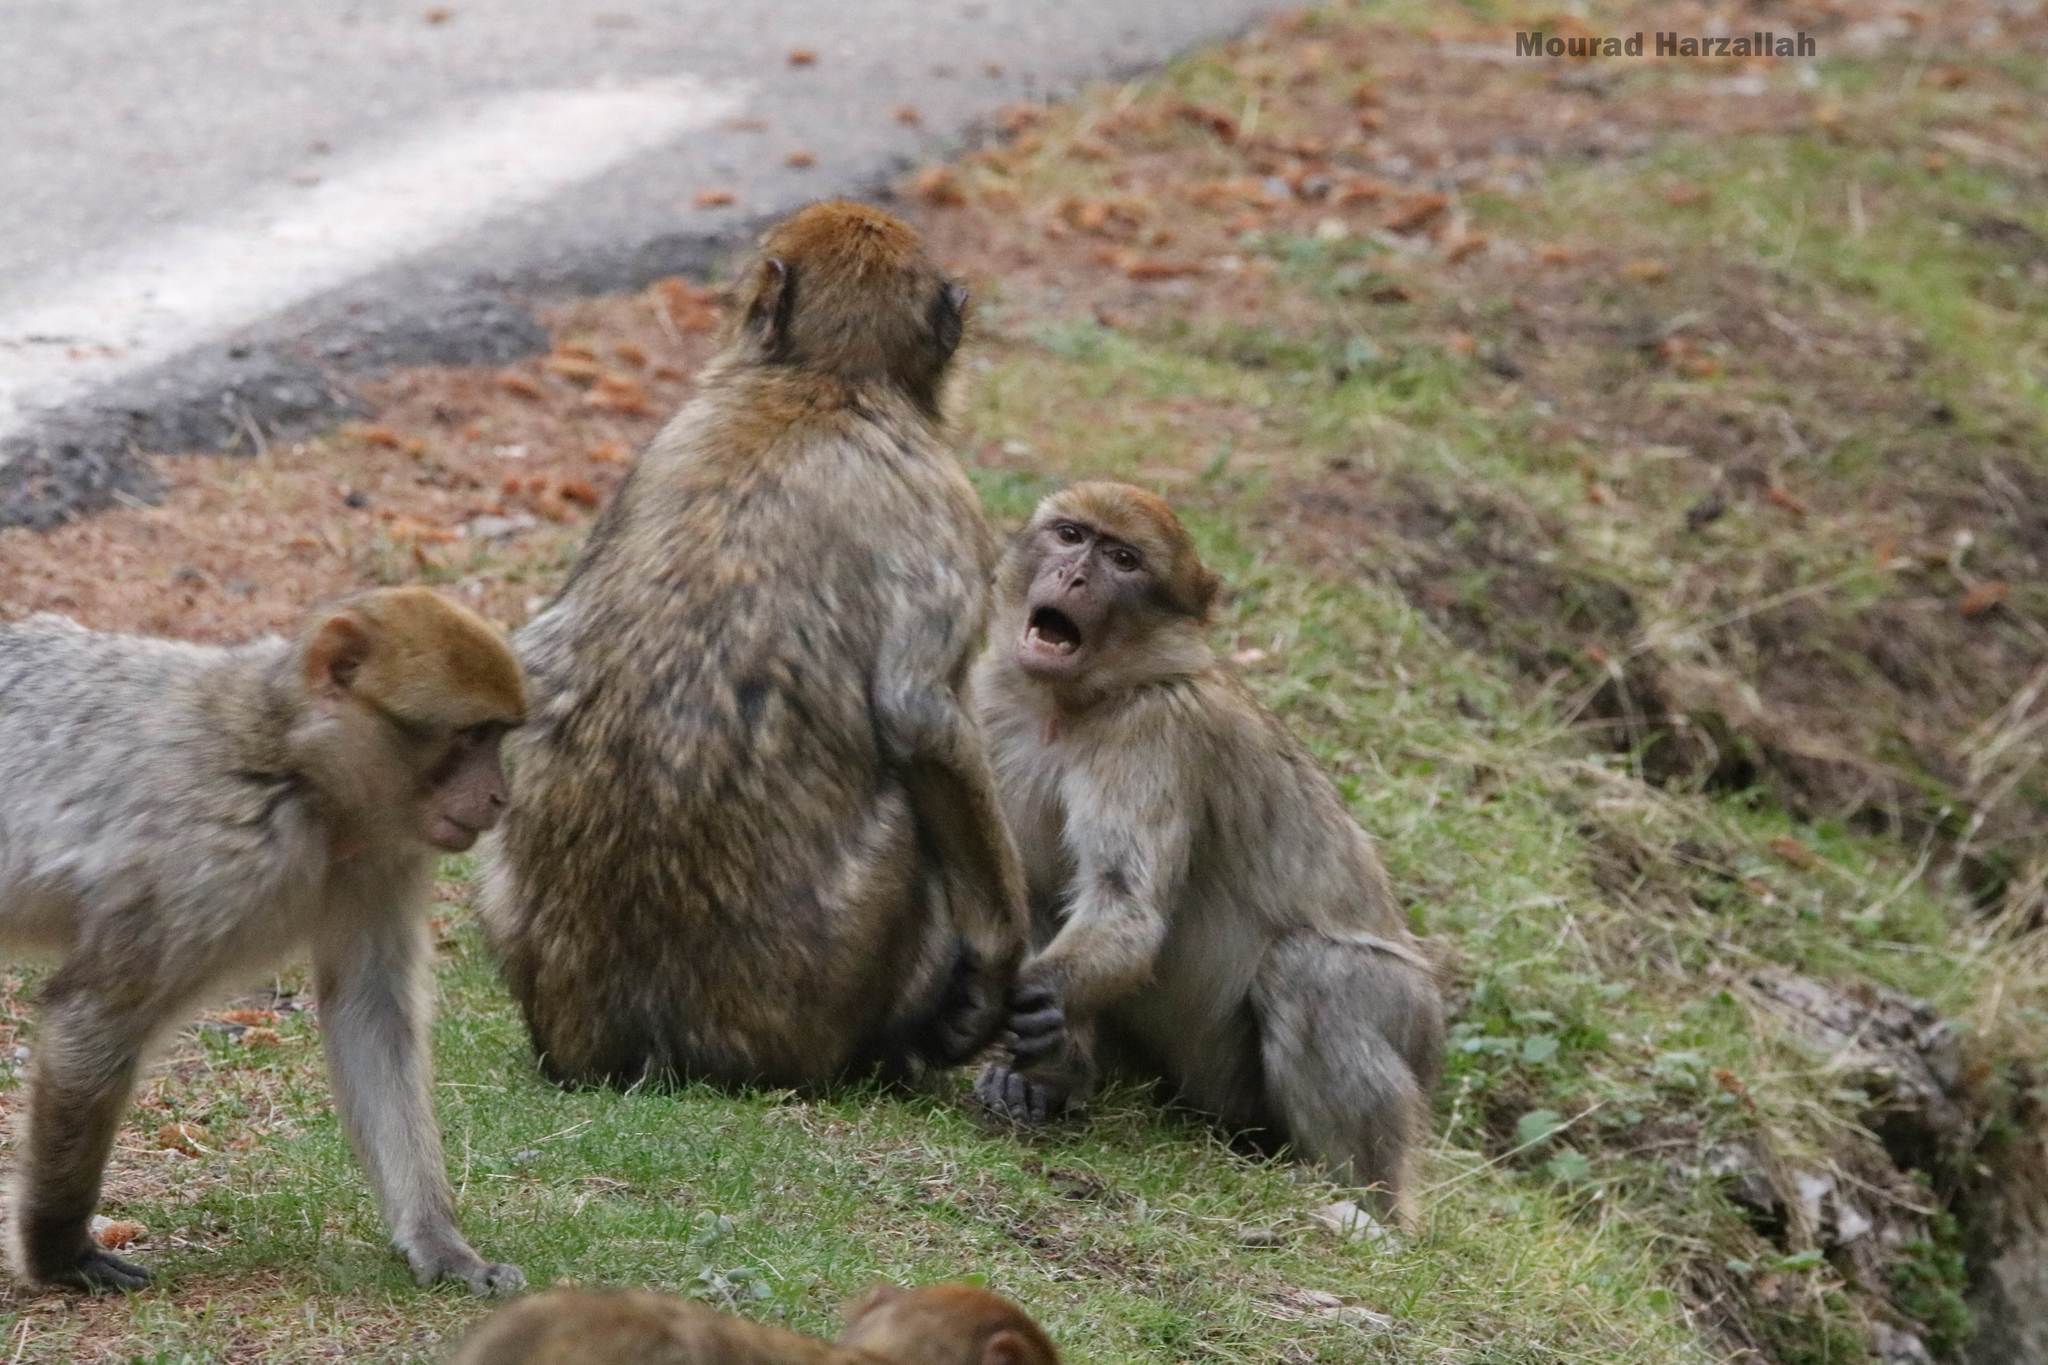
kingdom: Animalia
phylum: Chordata
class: Mammalia
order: Primates
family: Cercopithecidae
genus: Macaca
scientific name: Macaca sylvanus
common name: Barbary macaque
